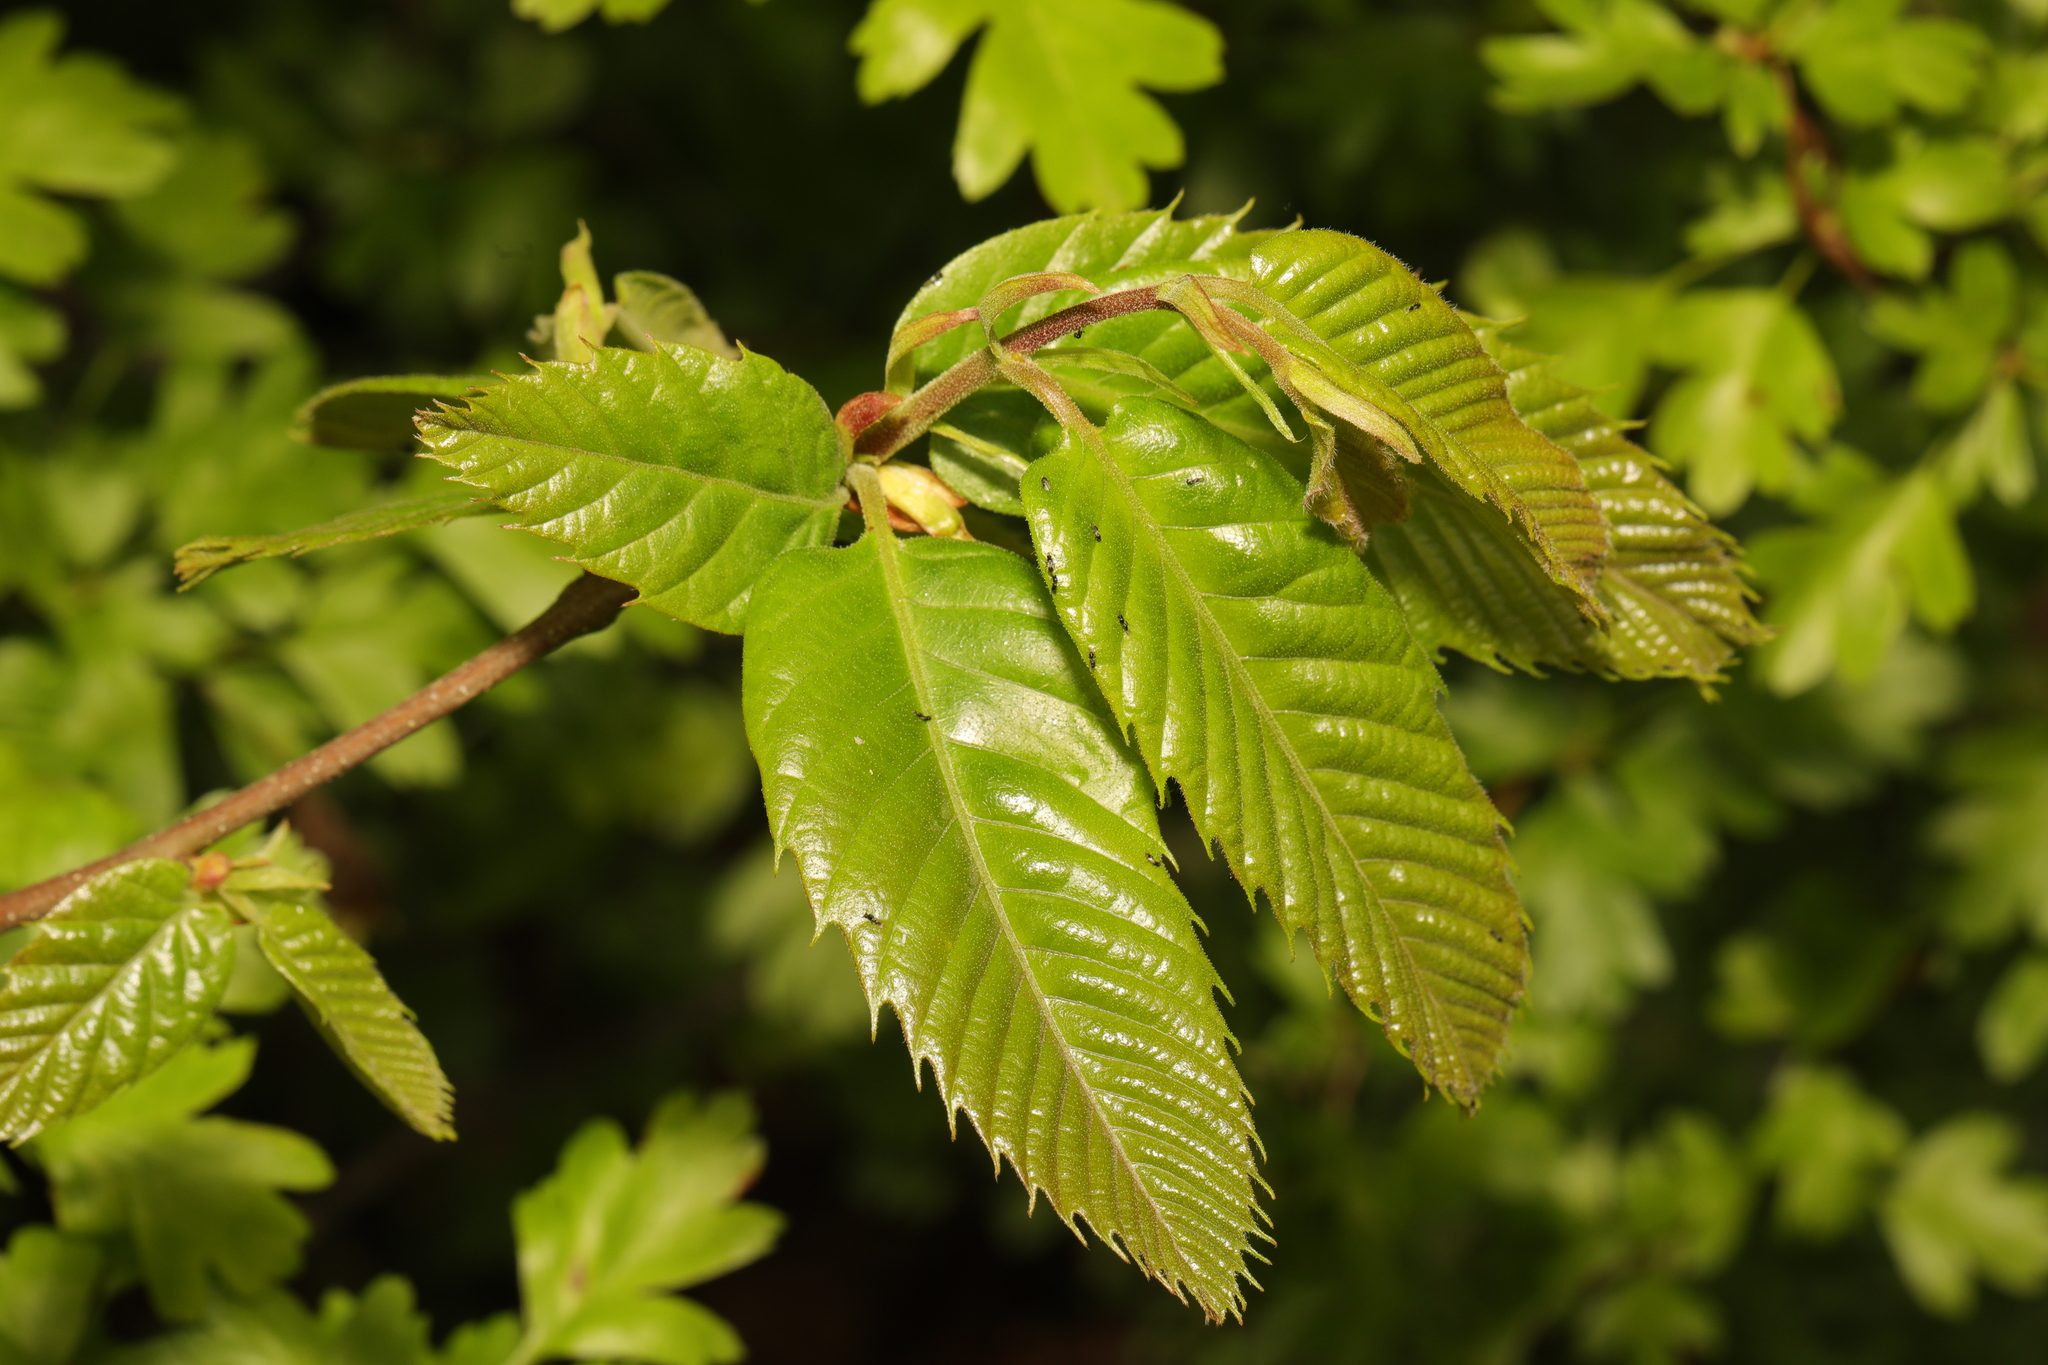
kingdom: Plantae
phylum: Tracheophyta
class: Magnoliopsida
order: Fagales
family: Fagaceae
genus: Castanea
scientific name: Castanea sativa
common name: Sweet chestnut
